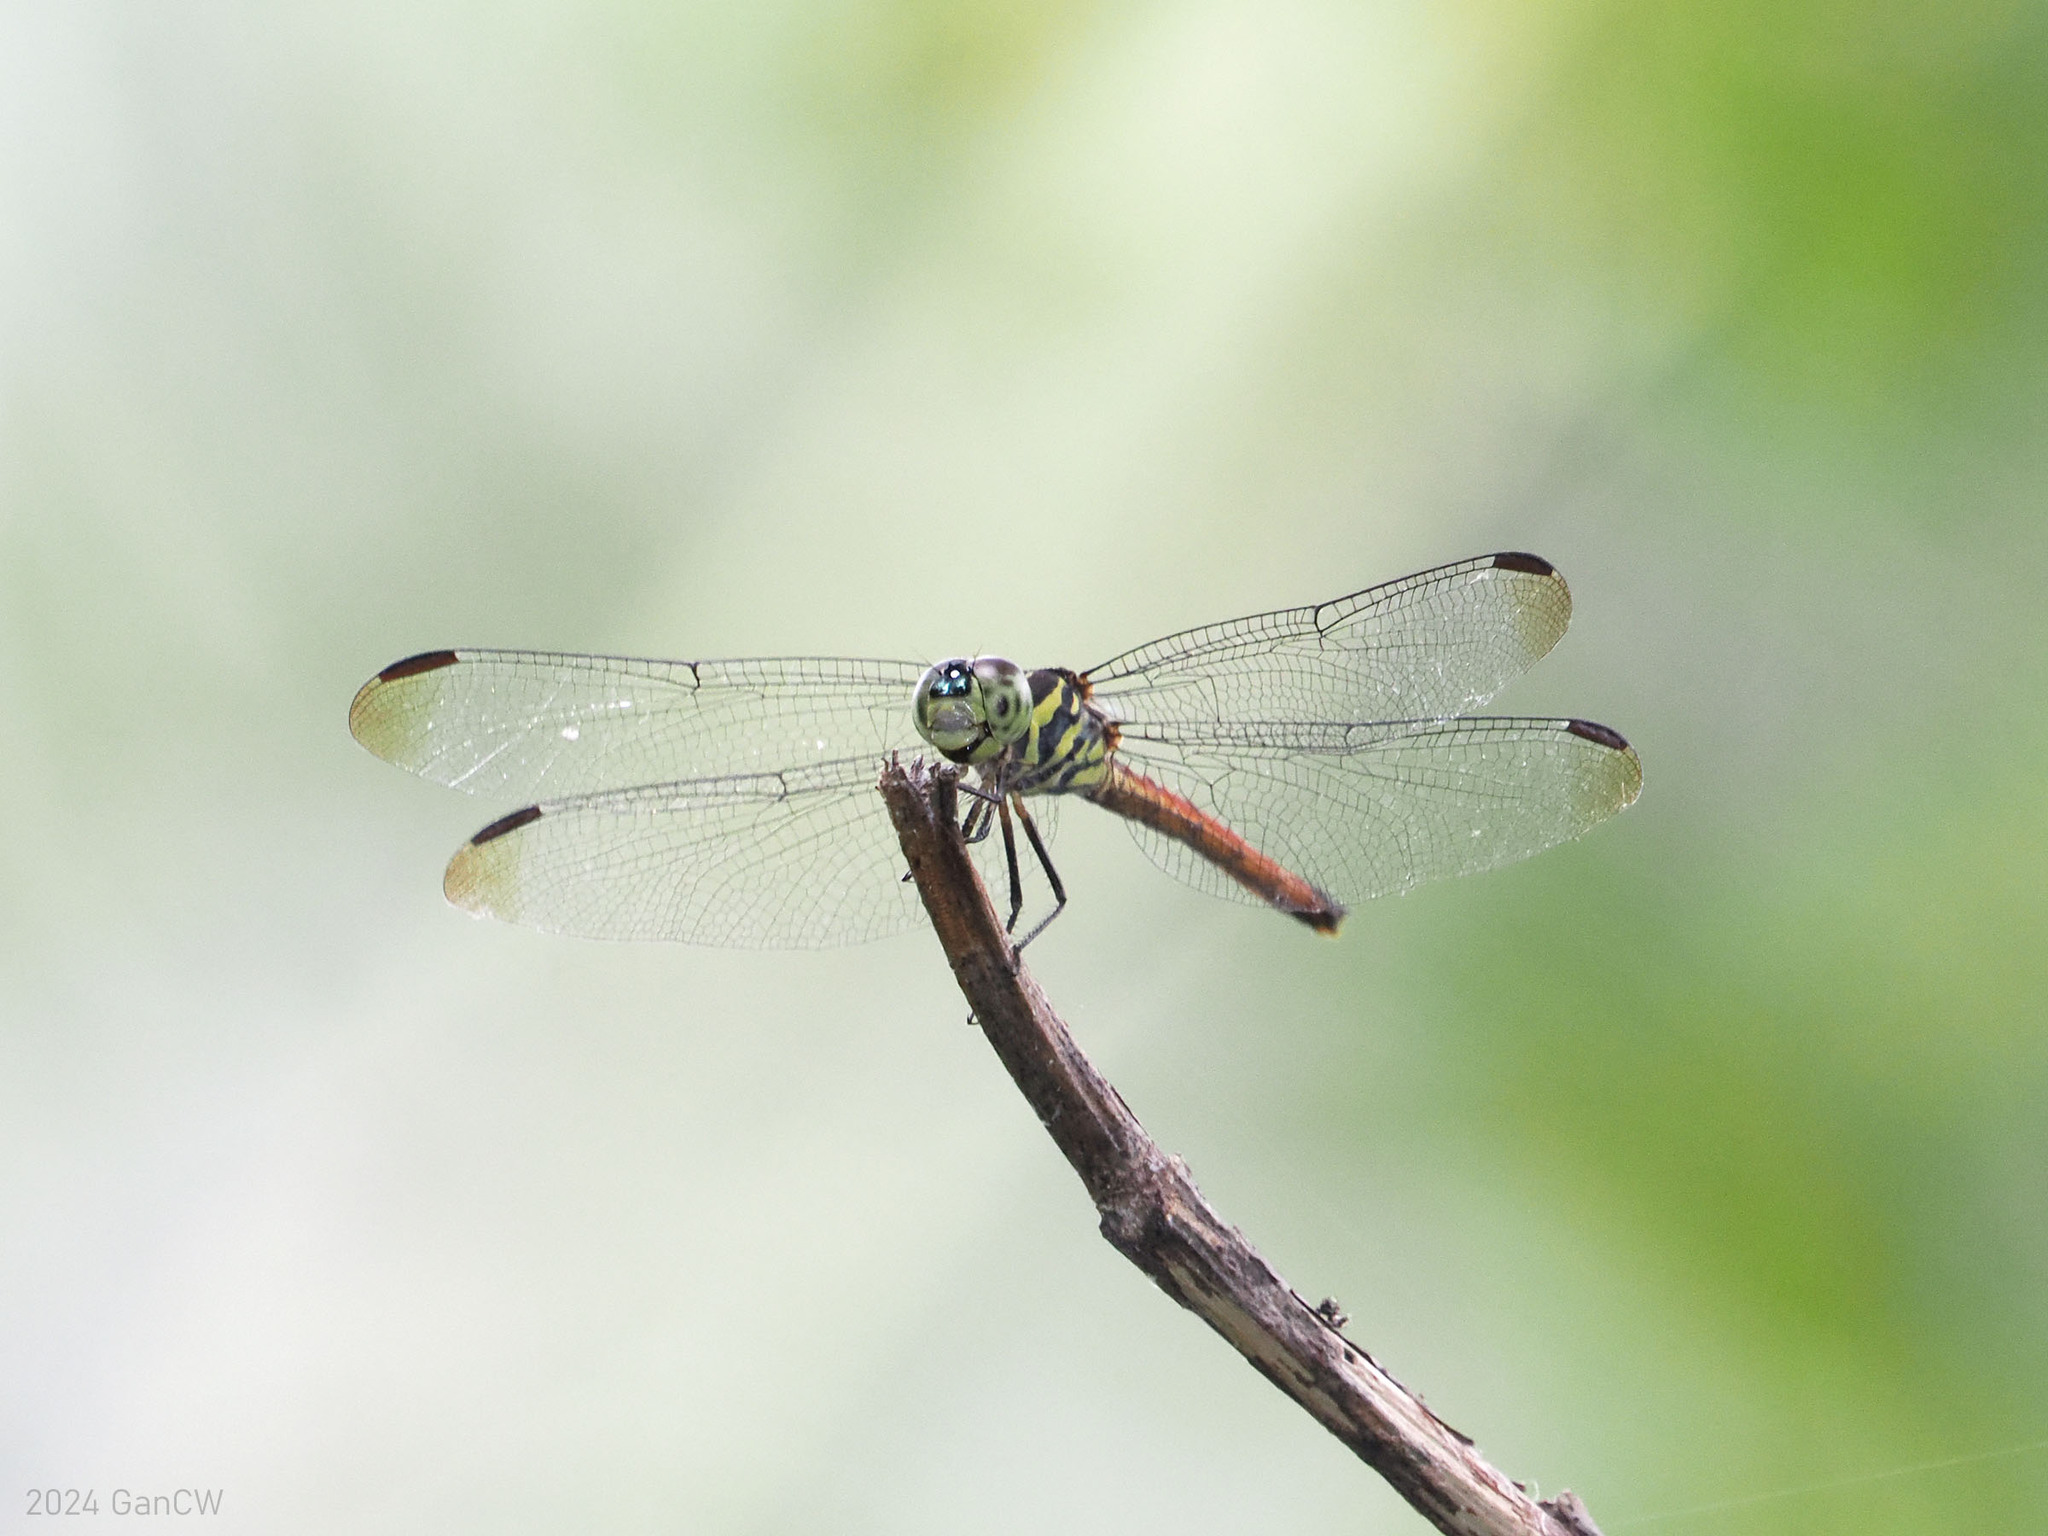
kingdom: Animalia
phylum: Arthropoda
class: Insecta
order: Odonata
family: Libellulidae
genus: Lathrecista
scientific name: Lathrecista asiatica
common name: Scarlet grenadier
